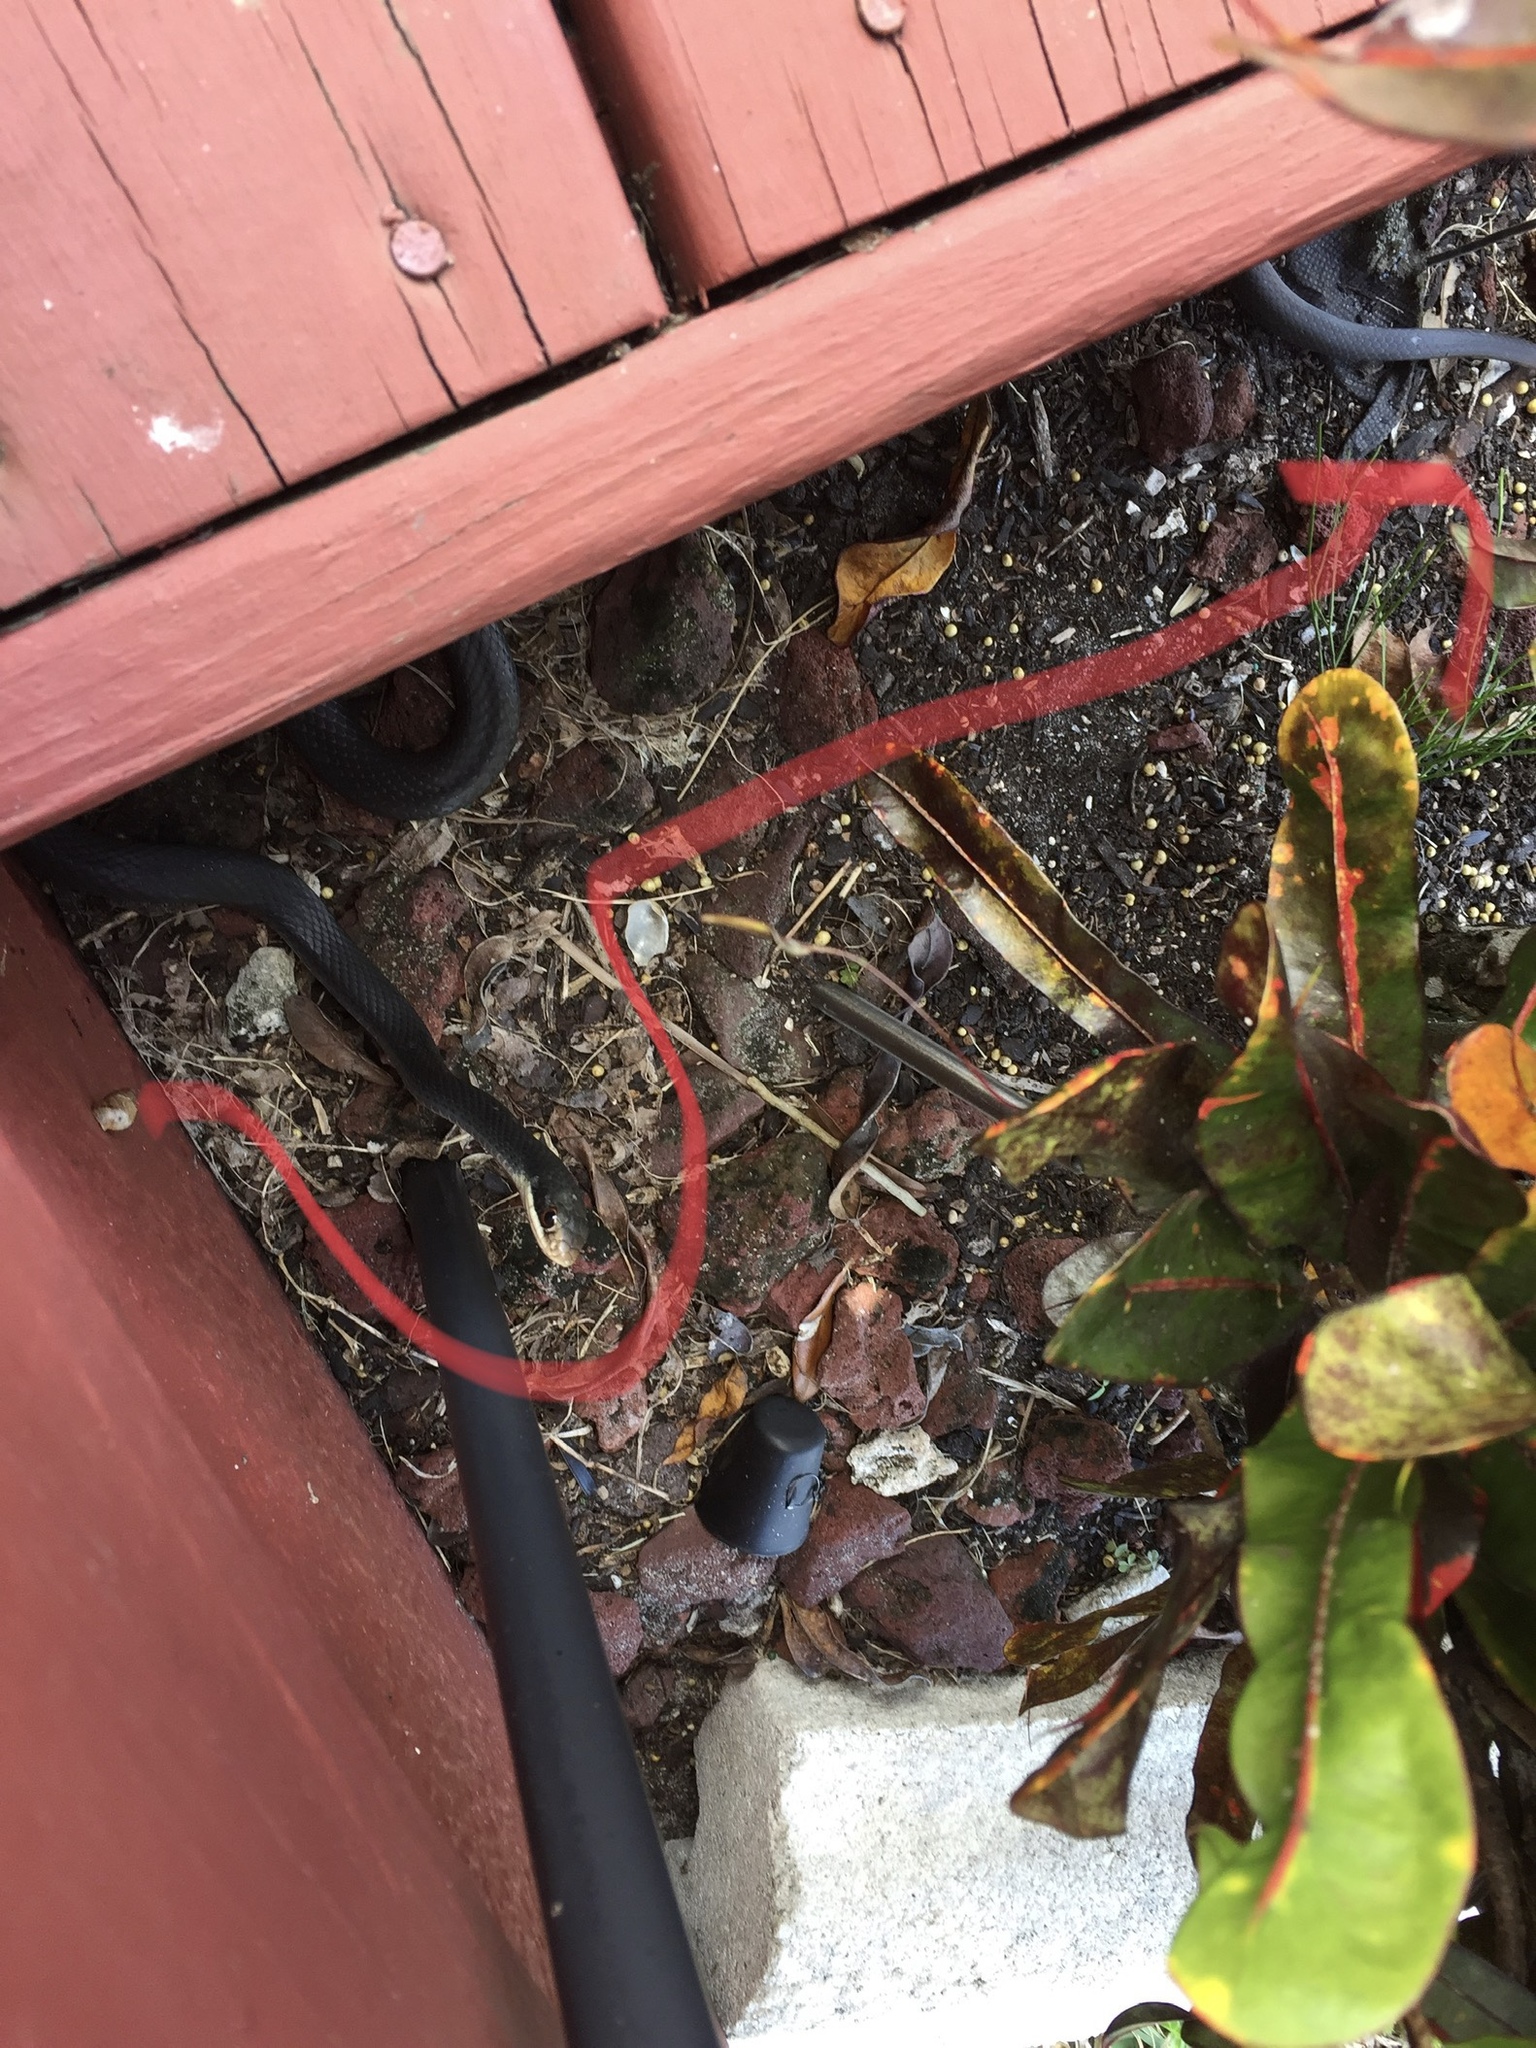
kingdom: Animalia
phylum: Chordata
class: Squamata
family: Colubridae
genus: Coluber
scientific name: Coluber constrictor
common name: Eastern racer
